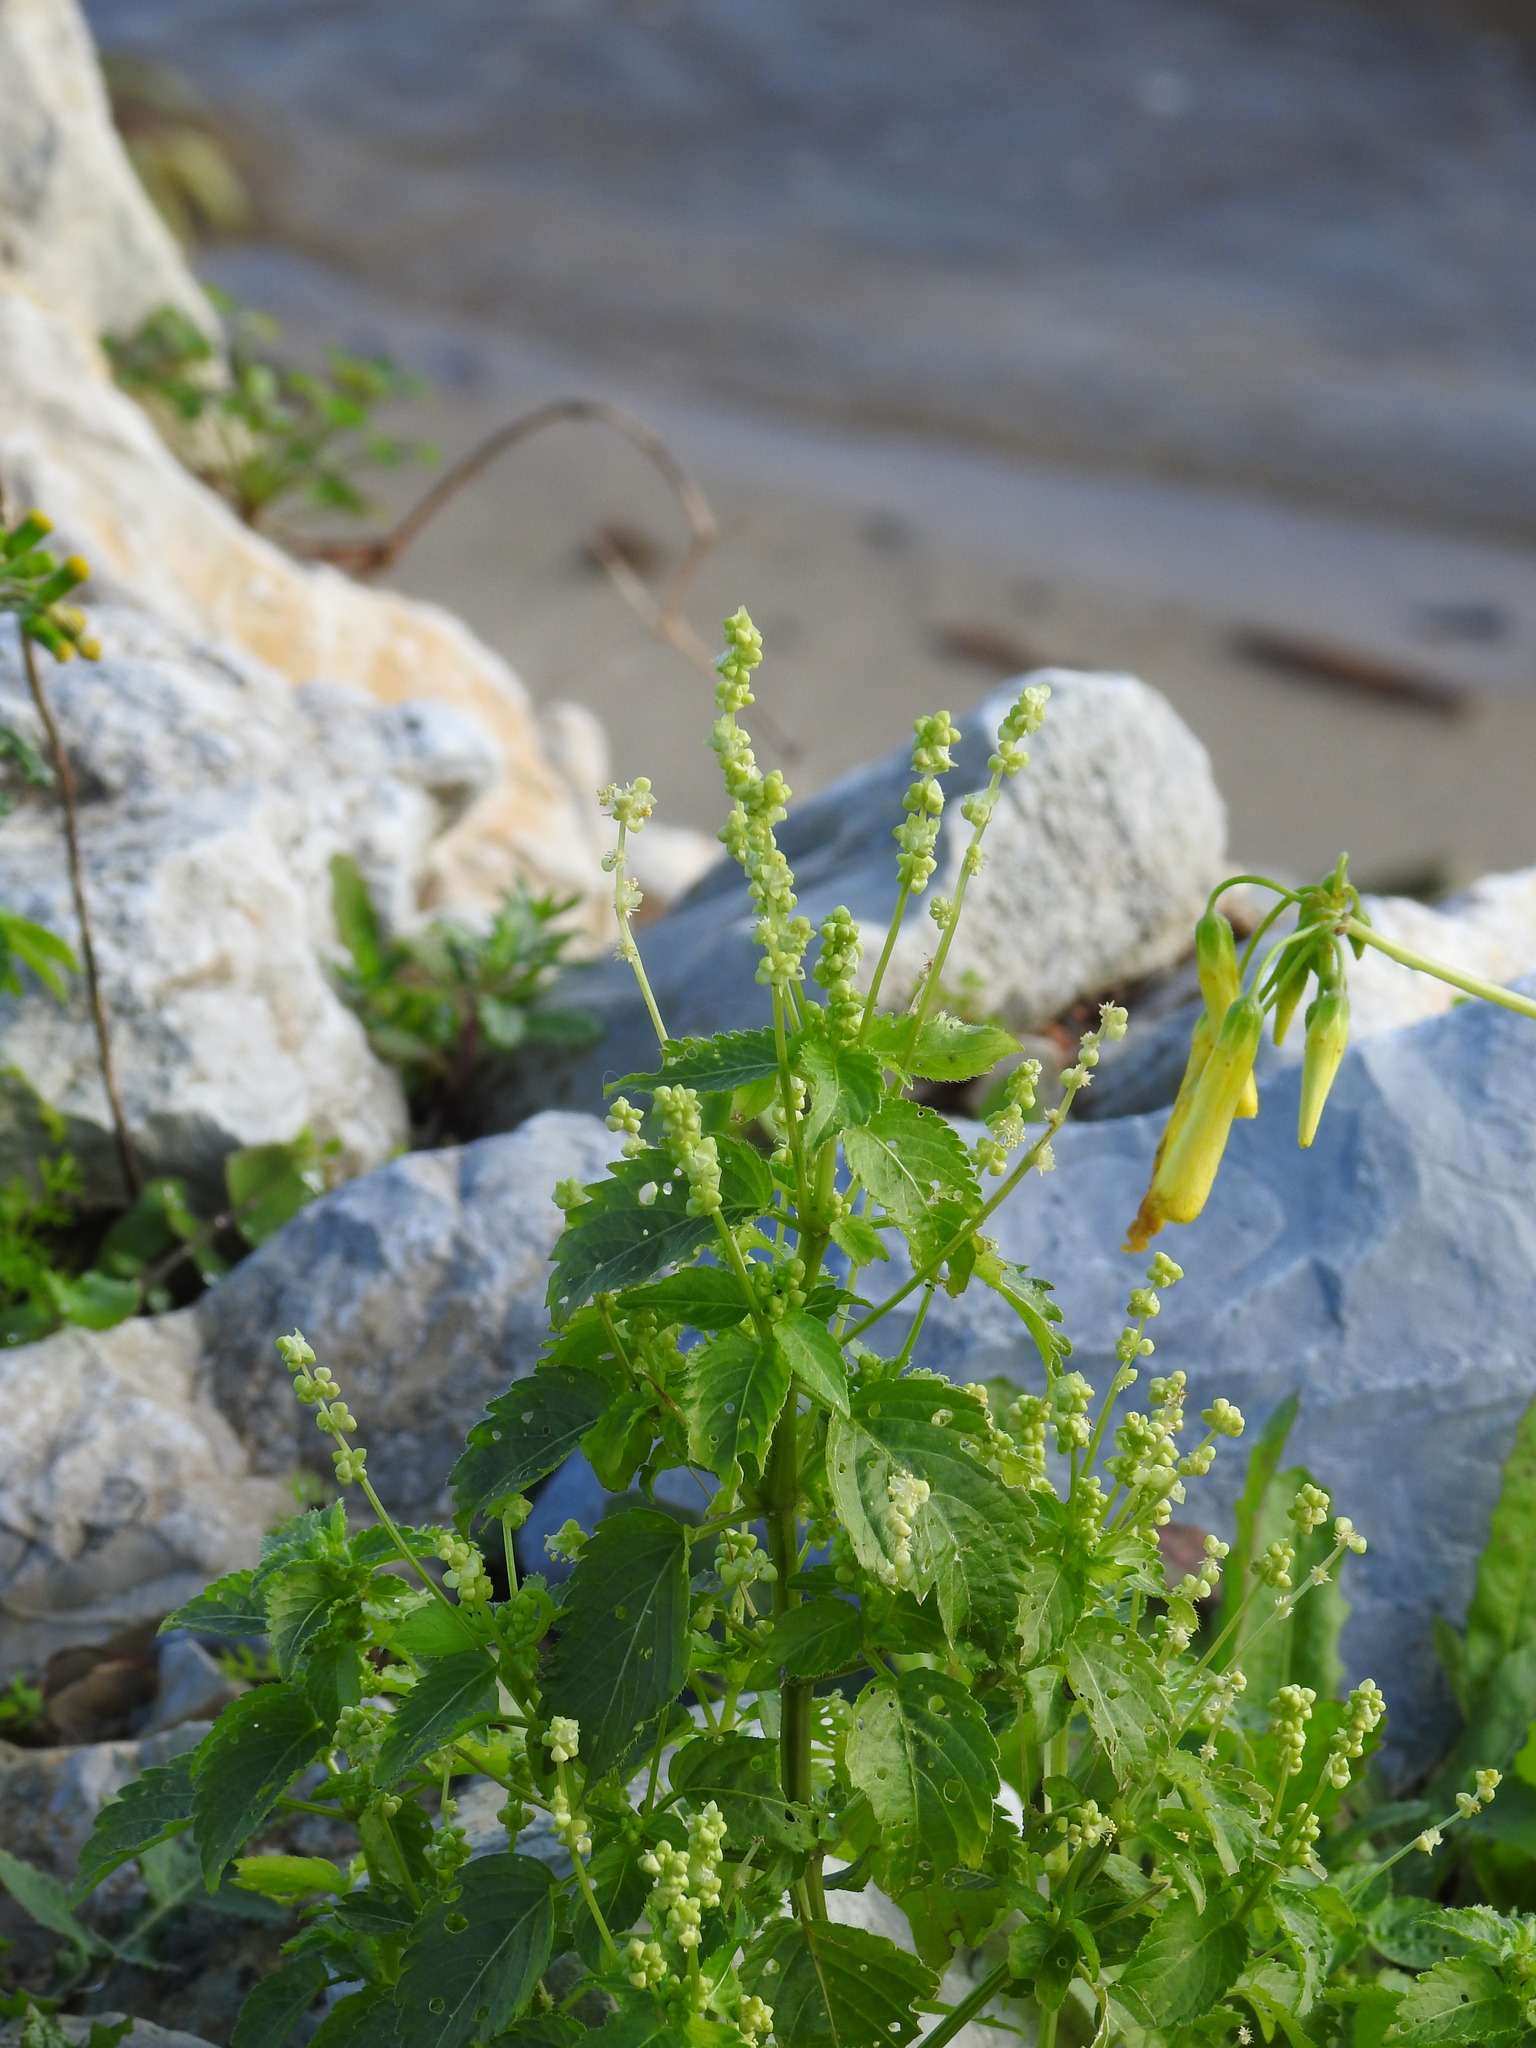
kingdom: Plantae
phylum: Tracheophyta
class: Magnoliopsida
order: Malpighiales
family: Euphorbiaceae
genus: Mercurialis
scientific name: Mercurialis annua
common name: Annual mercury
